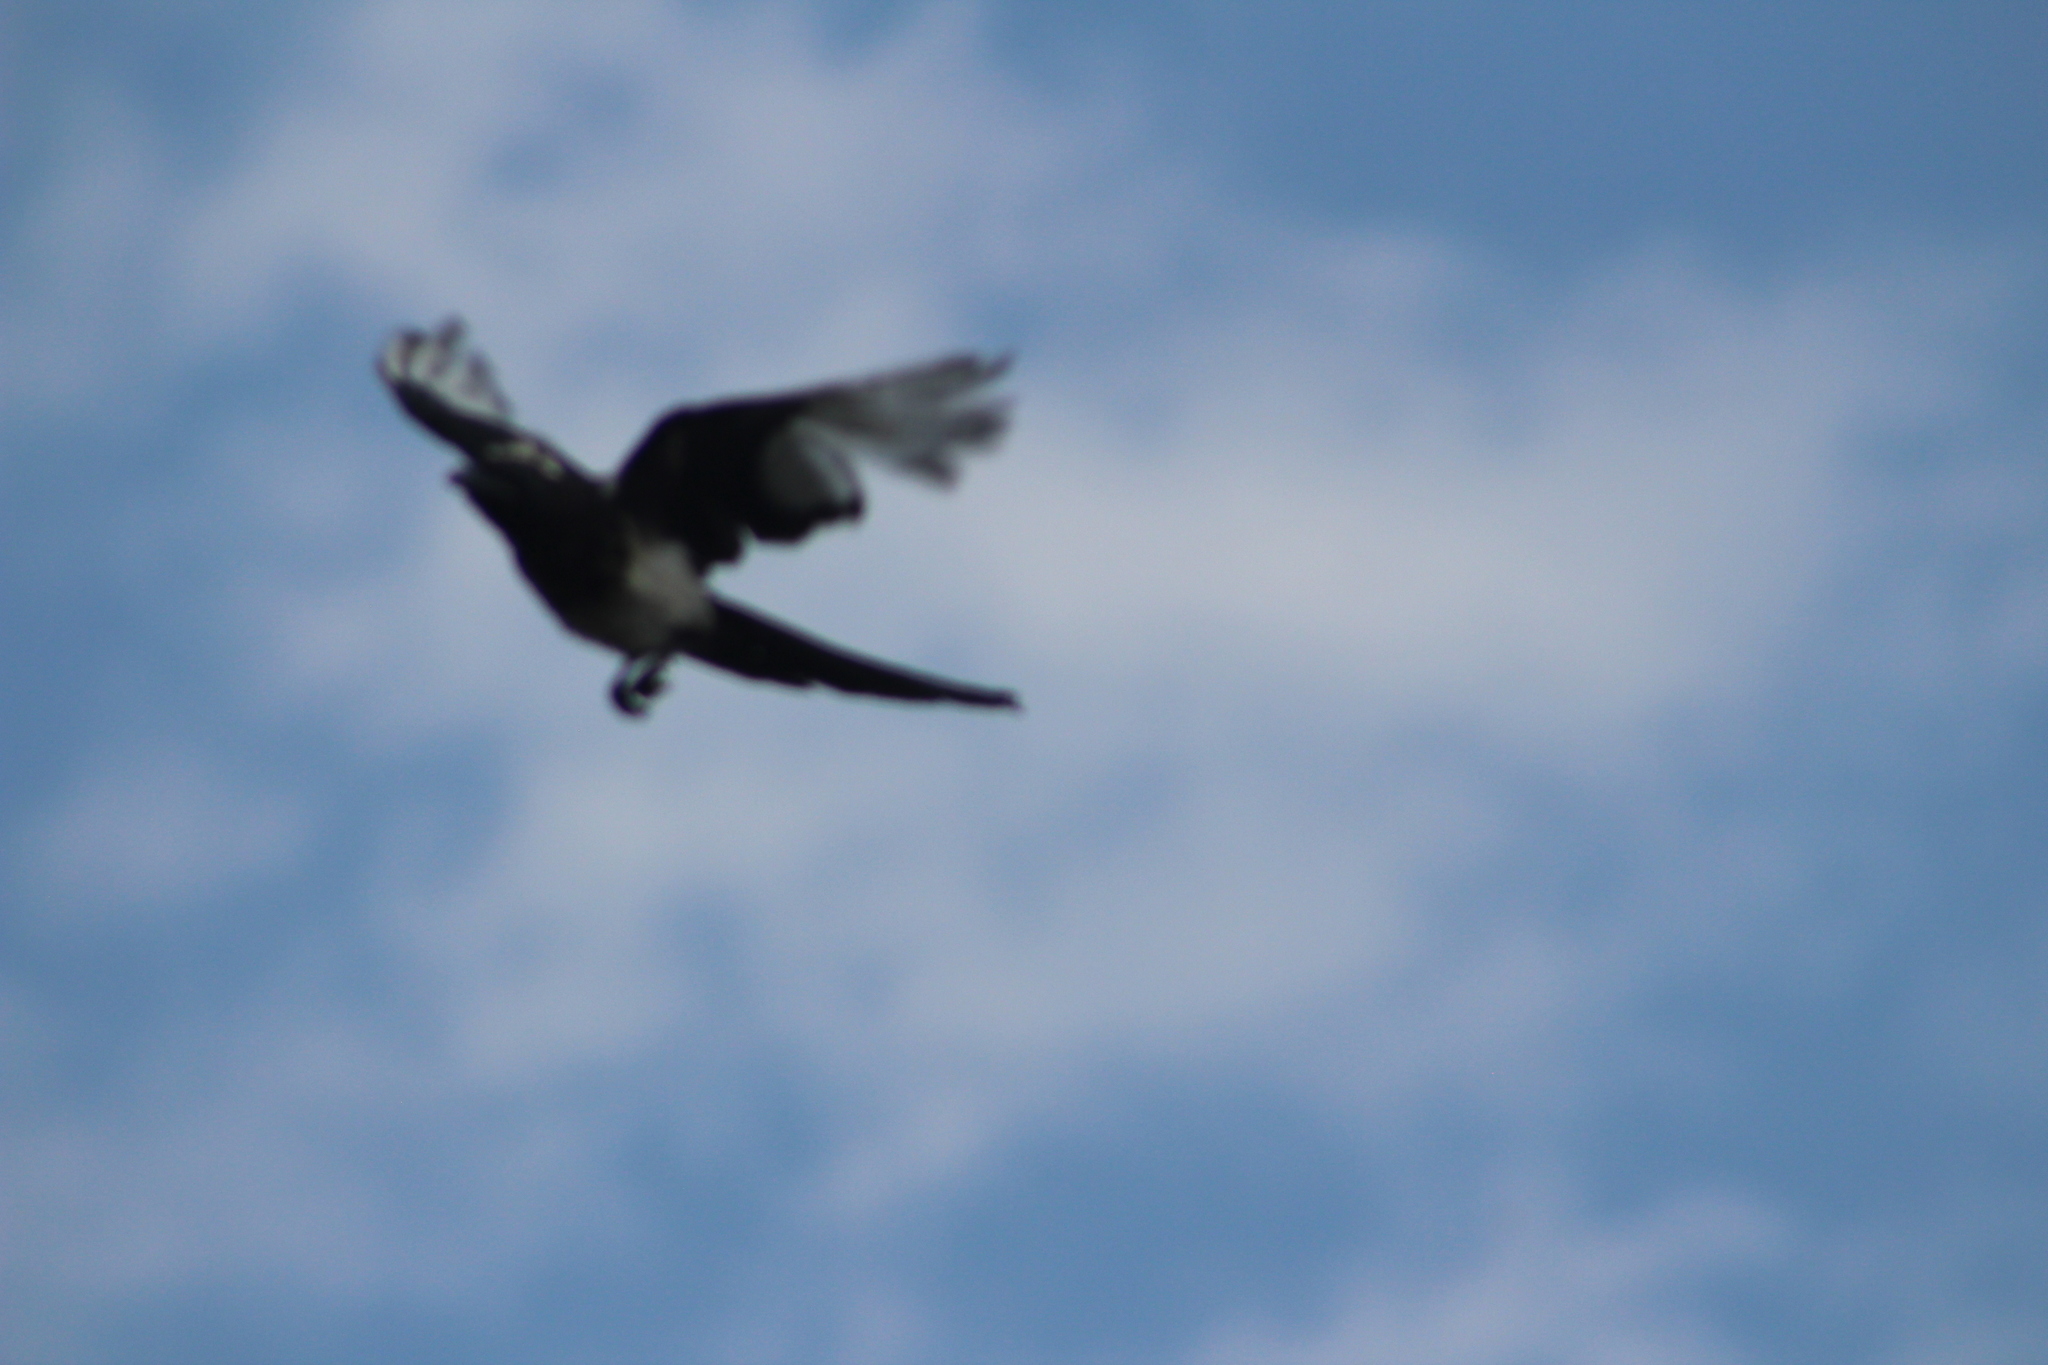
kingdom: Animalia
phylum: Chordata
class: Aves
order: Passeriformes
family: Corvidae
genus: Pica
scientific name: Pica hudsonia
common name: Black-billed magpie
